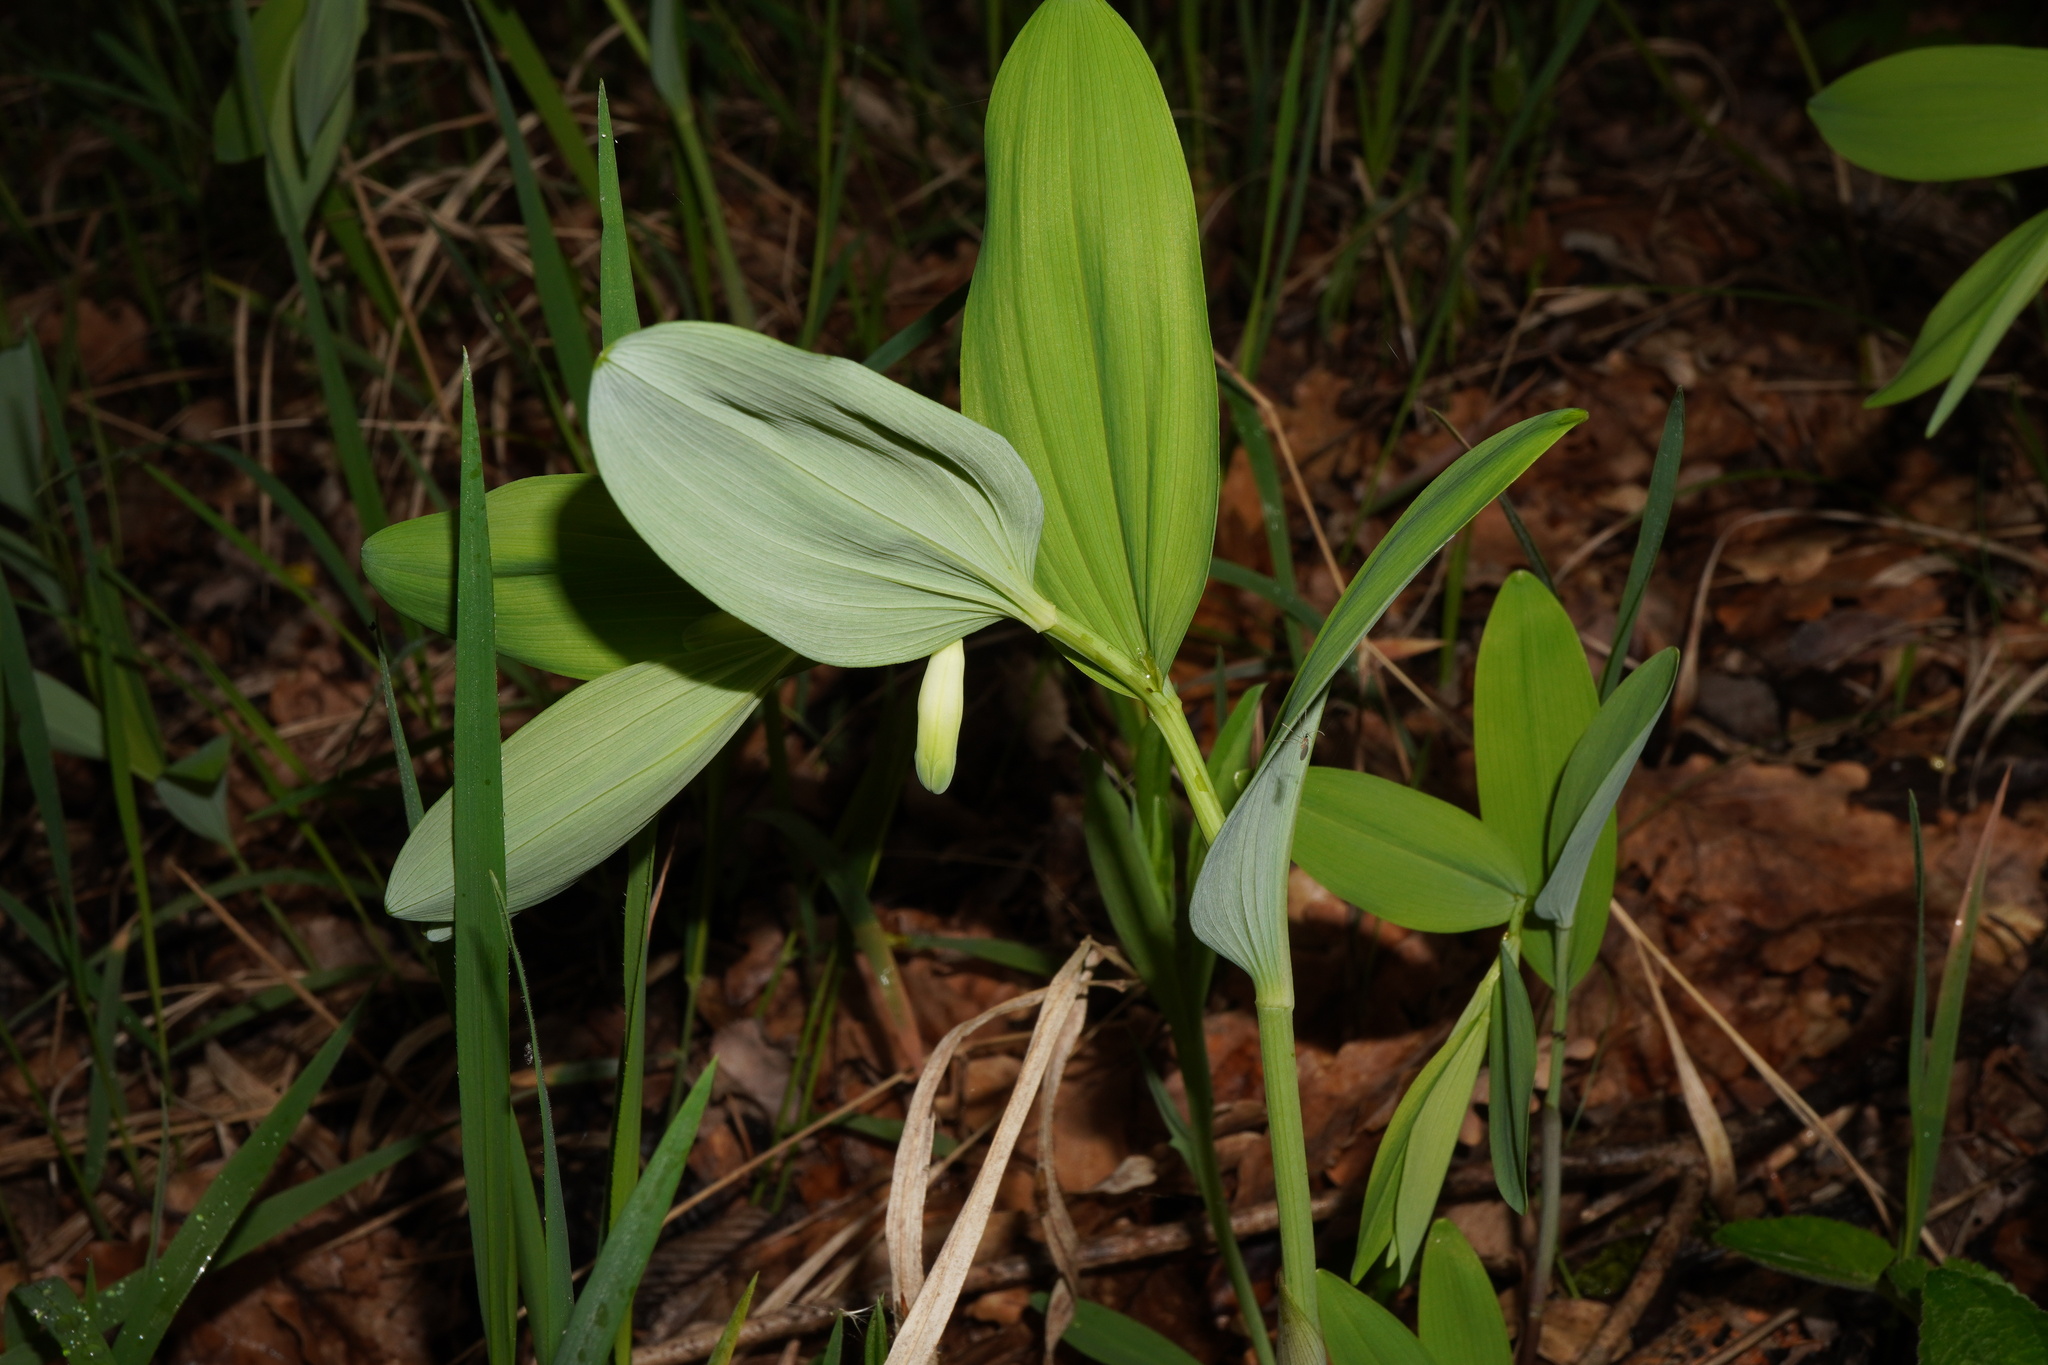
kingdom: Plantae
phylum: Tracheophyta
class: Liliopsida
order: Asparagales
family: Asparagaceae
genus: Polygonatum
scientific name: Polygonatum odoratum
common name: Angular solomon's-seal
